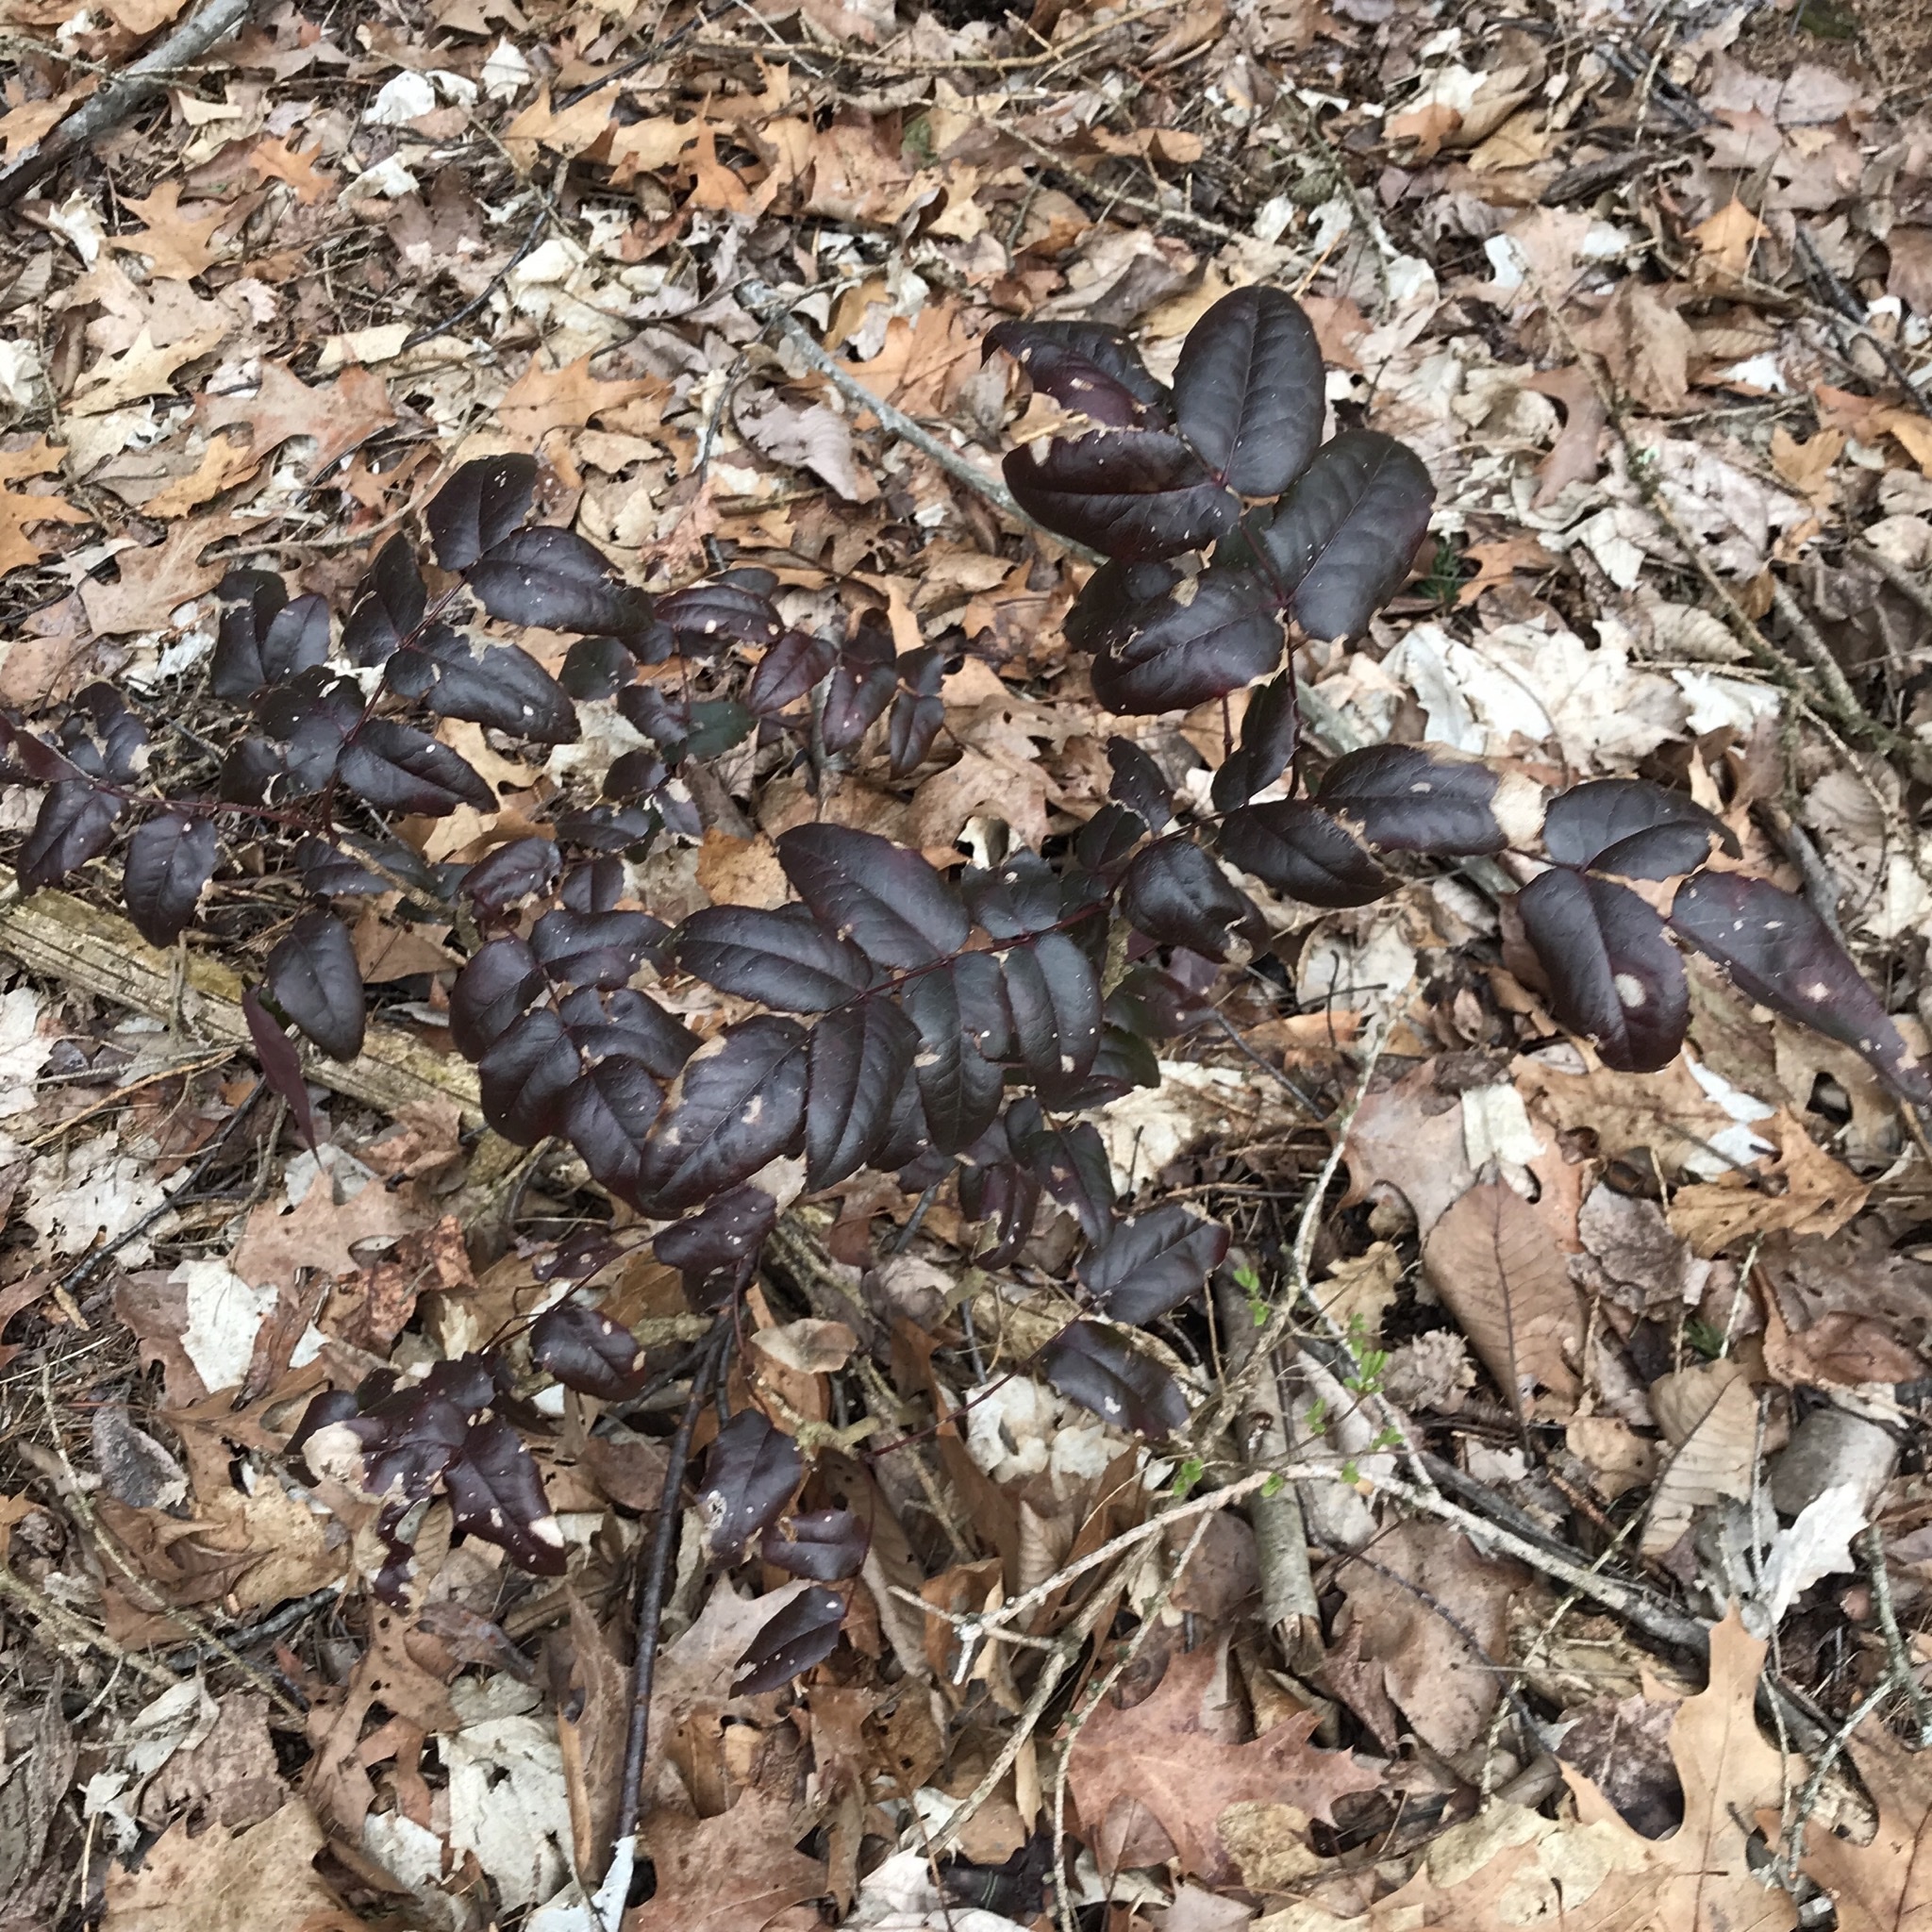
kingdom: Plantae
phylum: Tracheophyta
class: Magnoliopsida
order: Ranunculales
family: Berberidaceae
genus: Mahonia
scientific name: Mahonia aquifolium
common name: Oregon-grape
